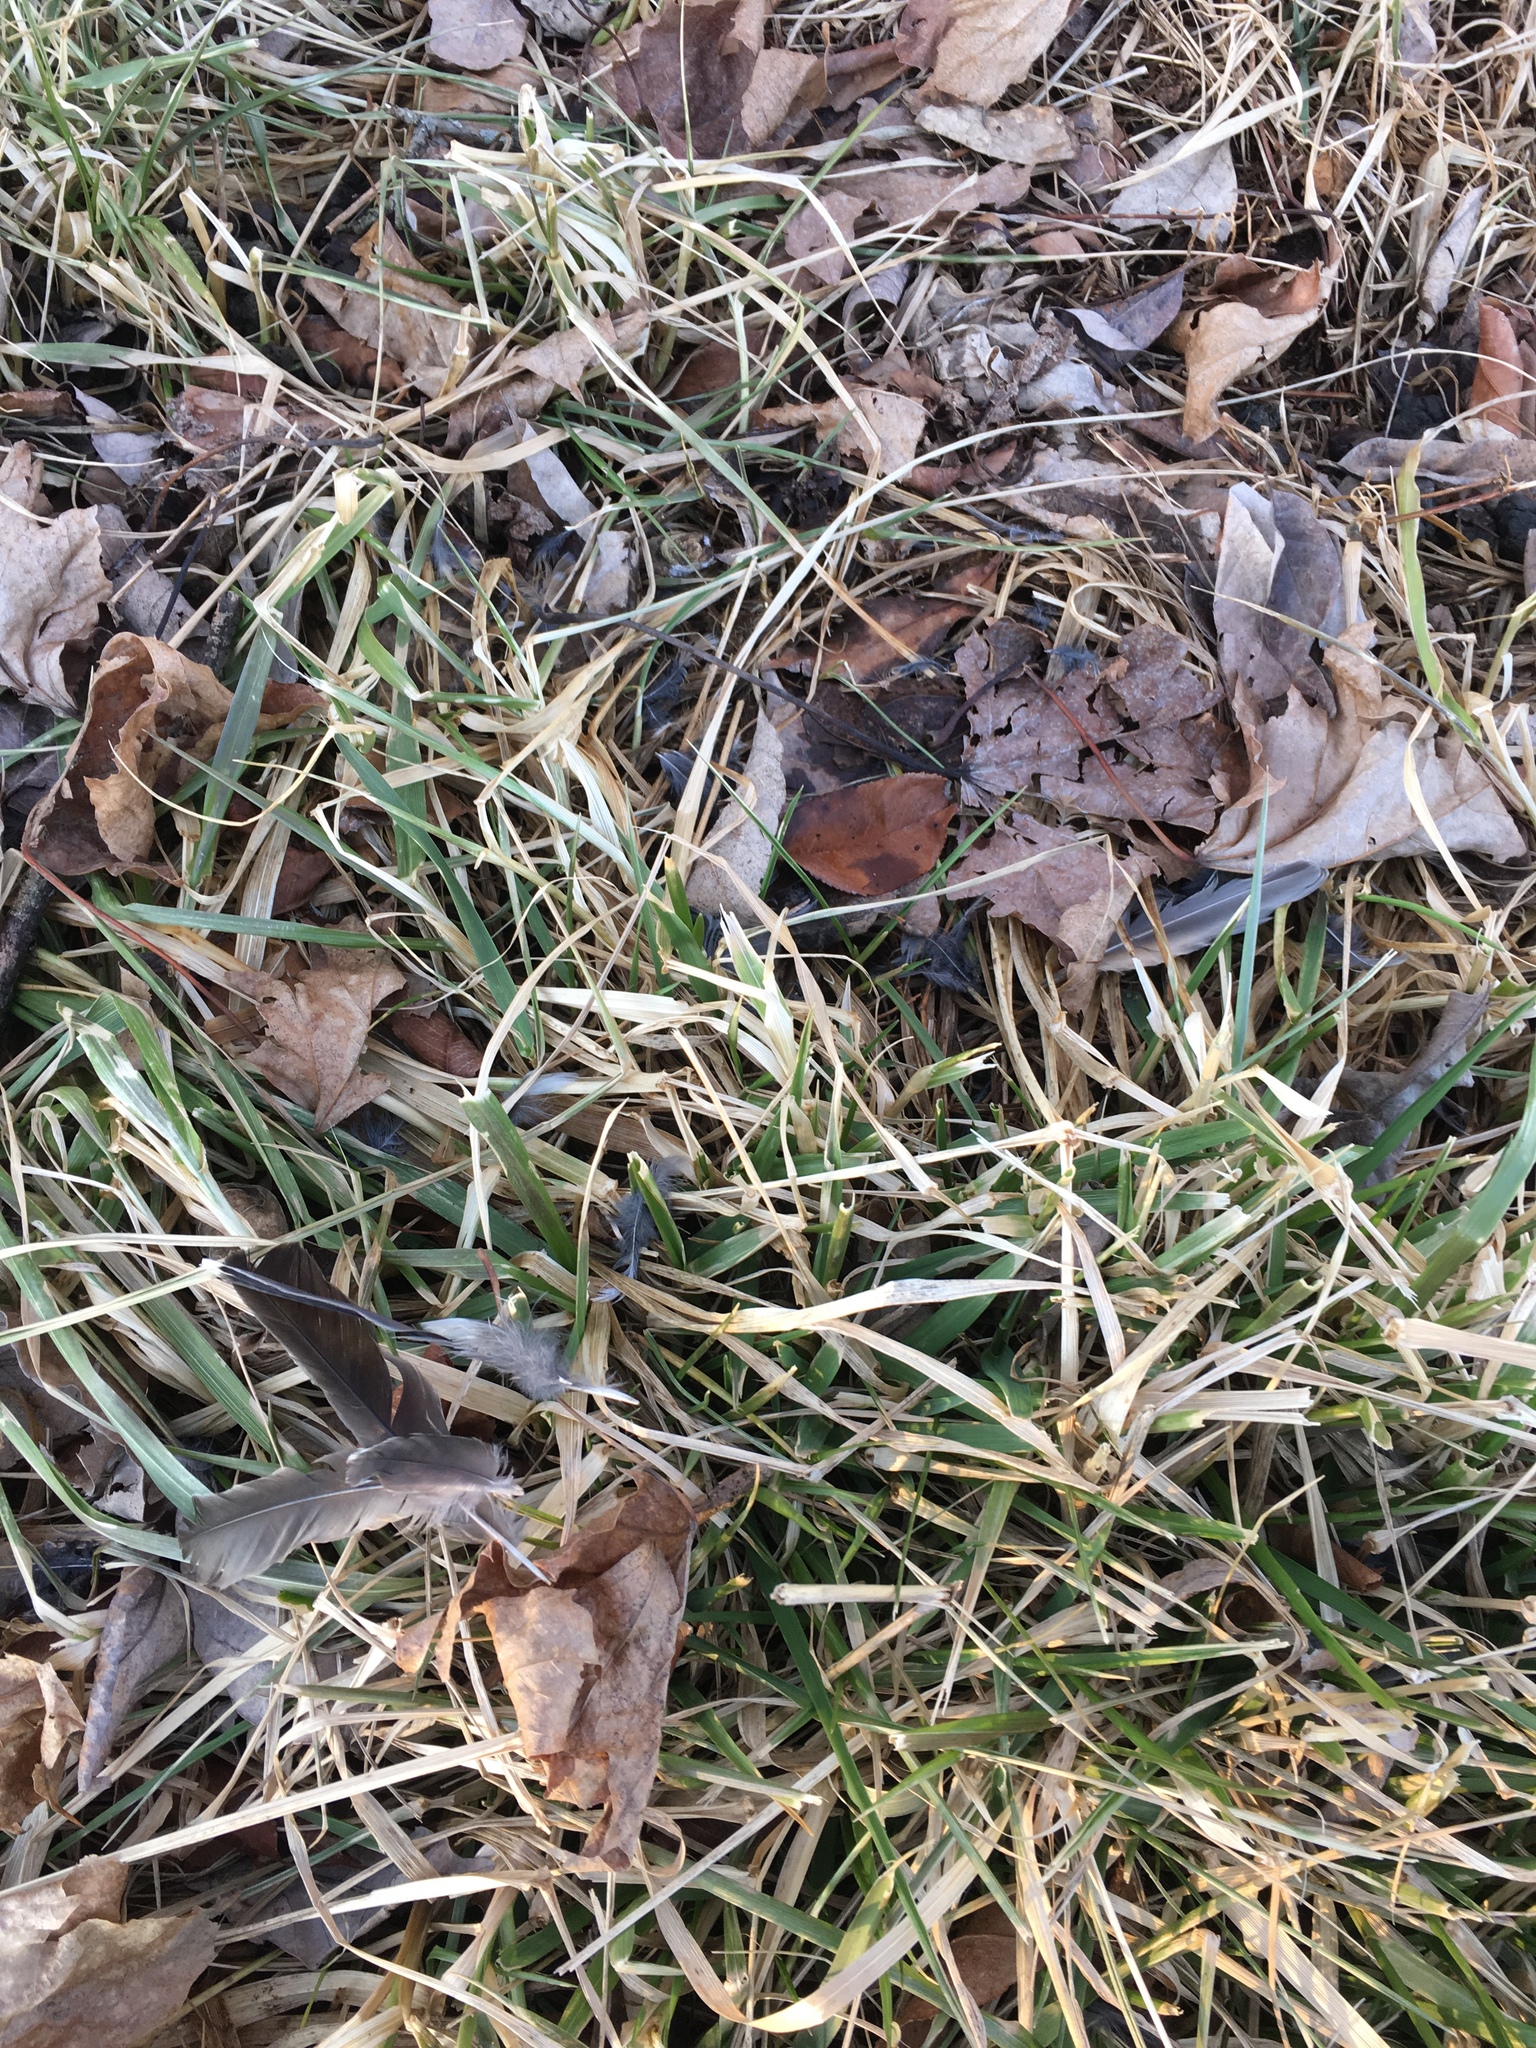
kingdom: Animalia
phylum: Chordata
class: Aves
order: Passeriformes
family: Turdidae
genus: Turdus
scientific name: Turdus migratorius
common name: American robin
